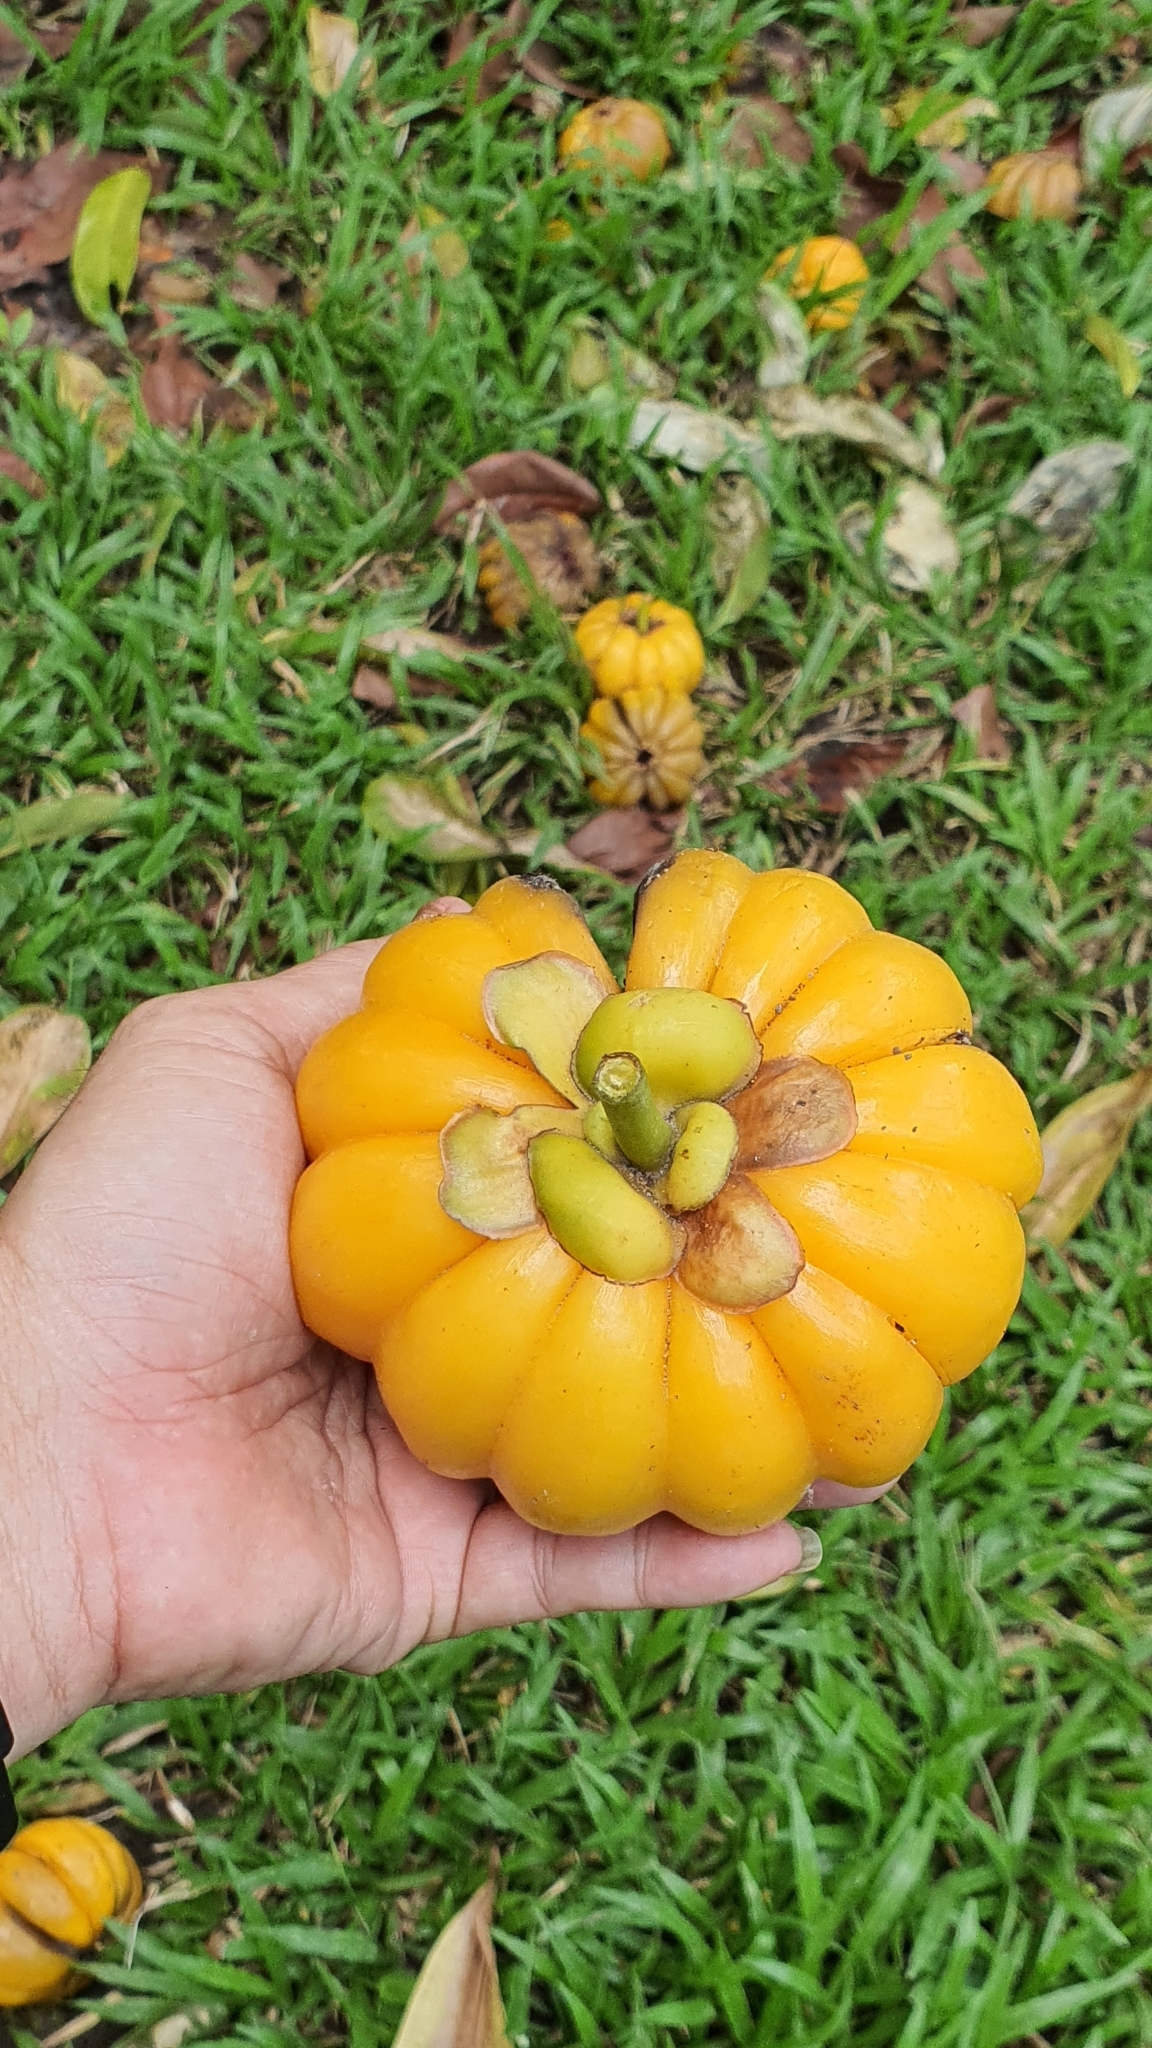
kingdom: Plantae
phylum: Tracheophyta
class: Magnoliopsida
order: Malpighiales
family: Clusiaceae
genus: Garcinia
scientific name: Garcinia atroviridis
